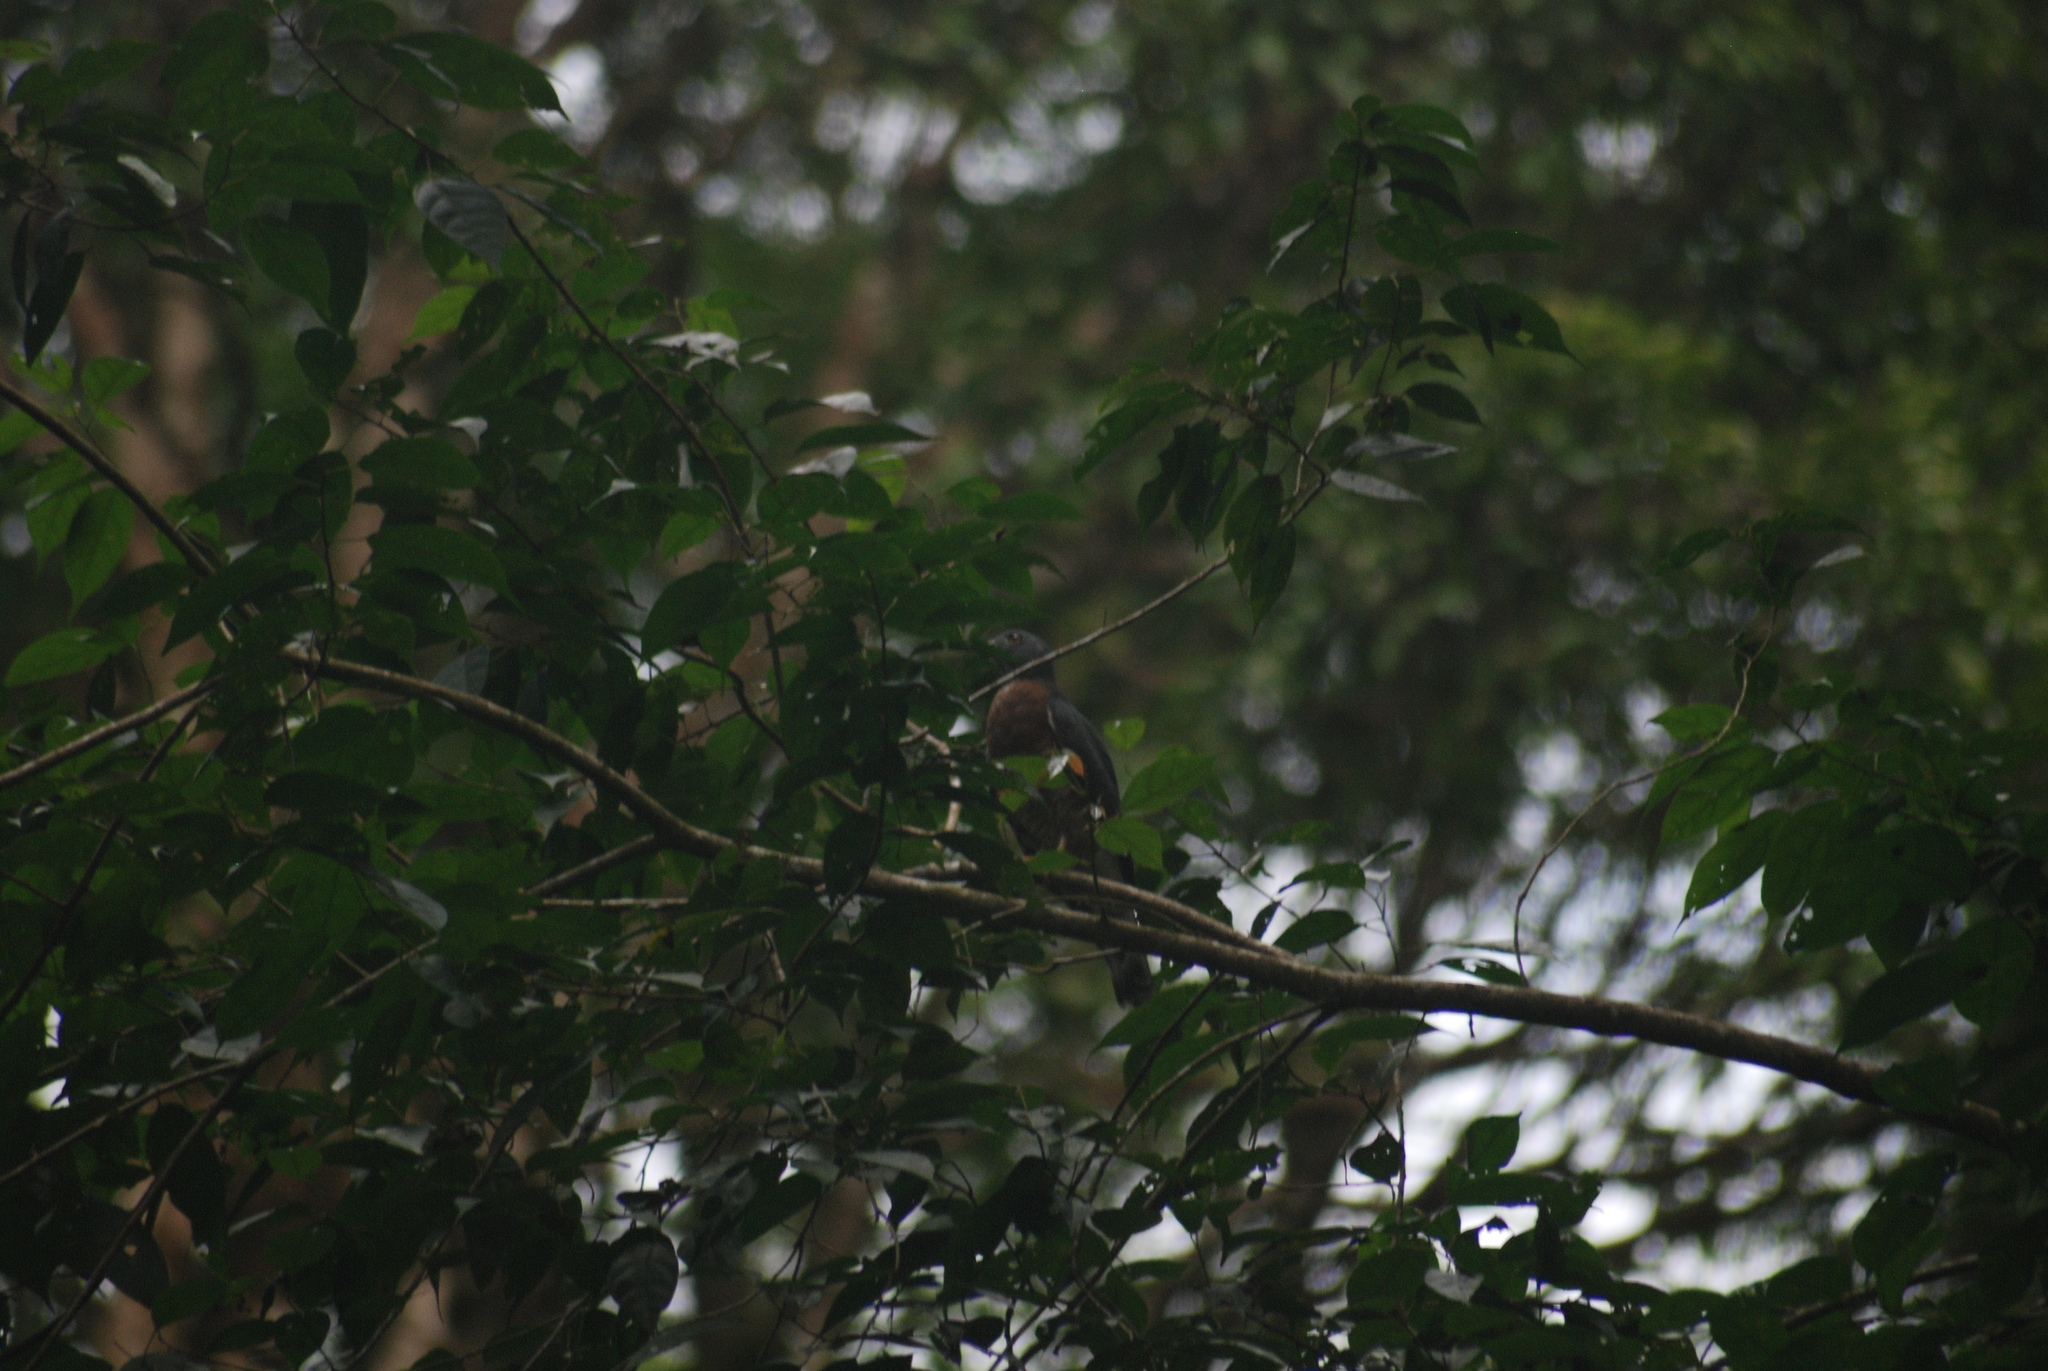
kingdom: Animalia
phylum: Chordata
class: Aves
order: Accipitriformes
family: Accipitridae
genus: Harpagus
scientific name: Harpagus bidentatus
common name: Double-toothed kite
